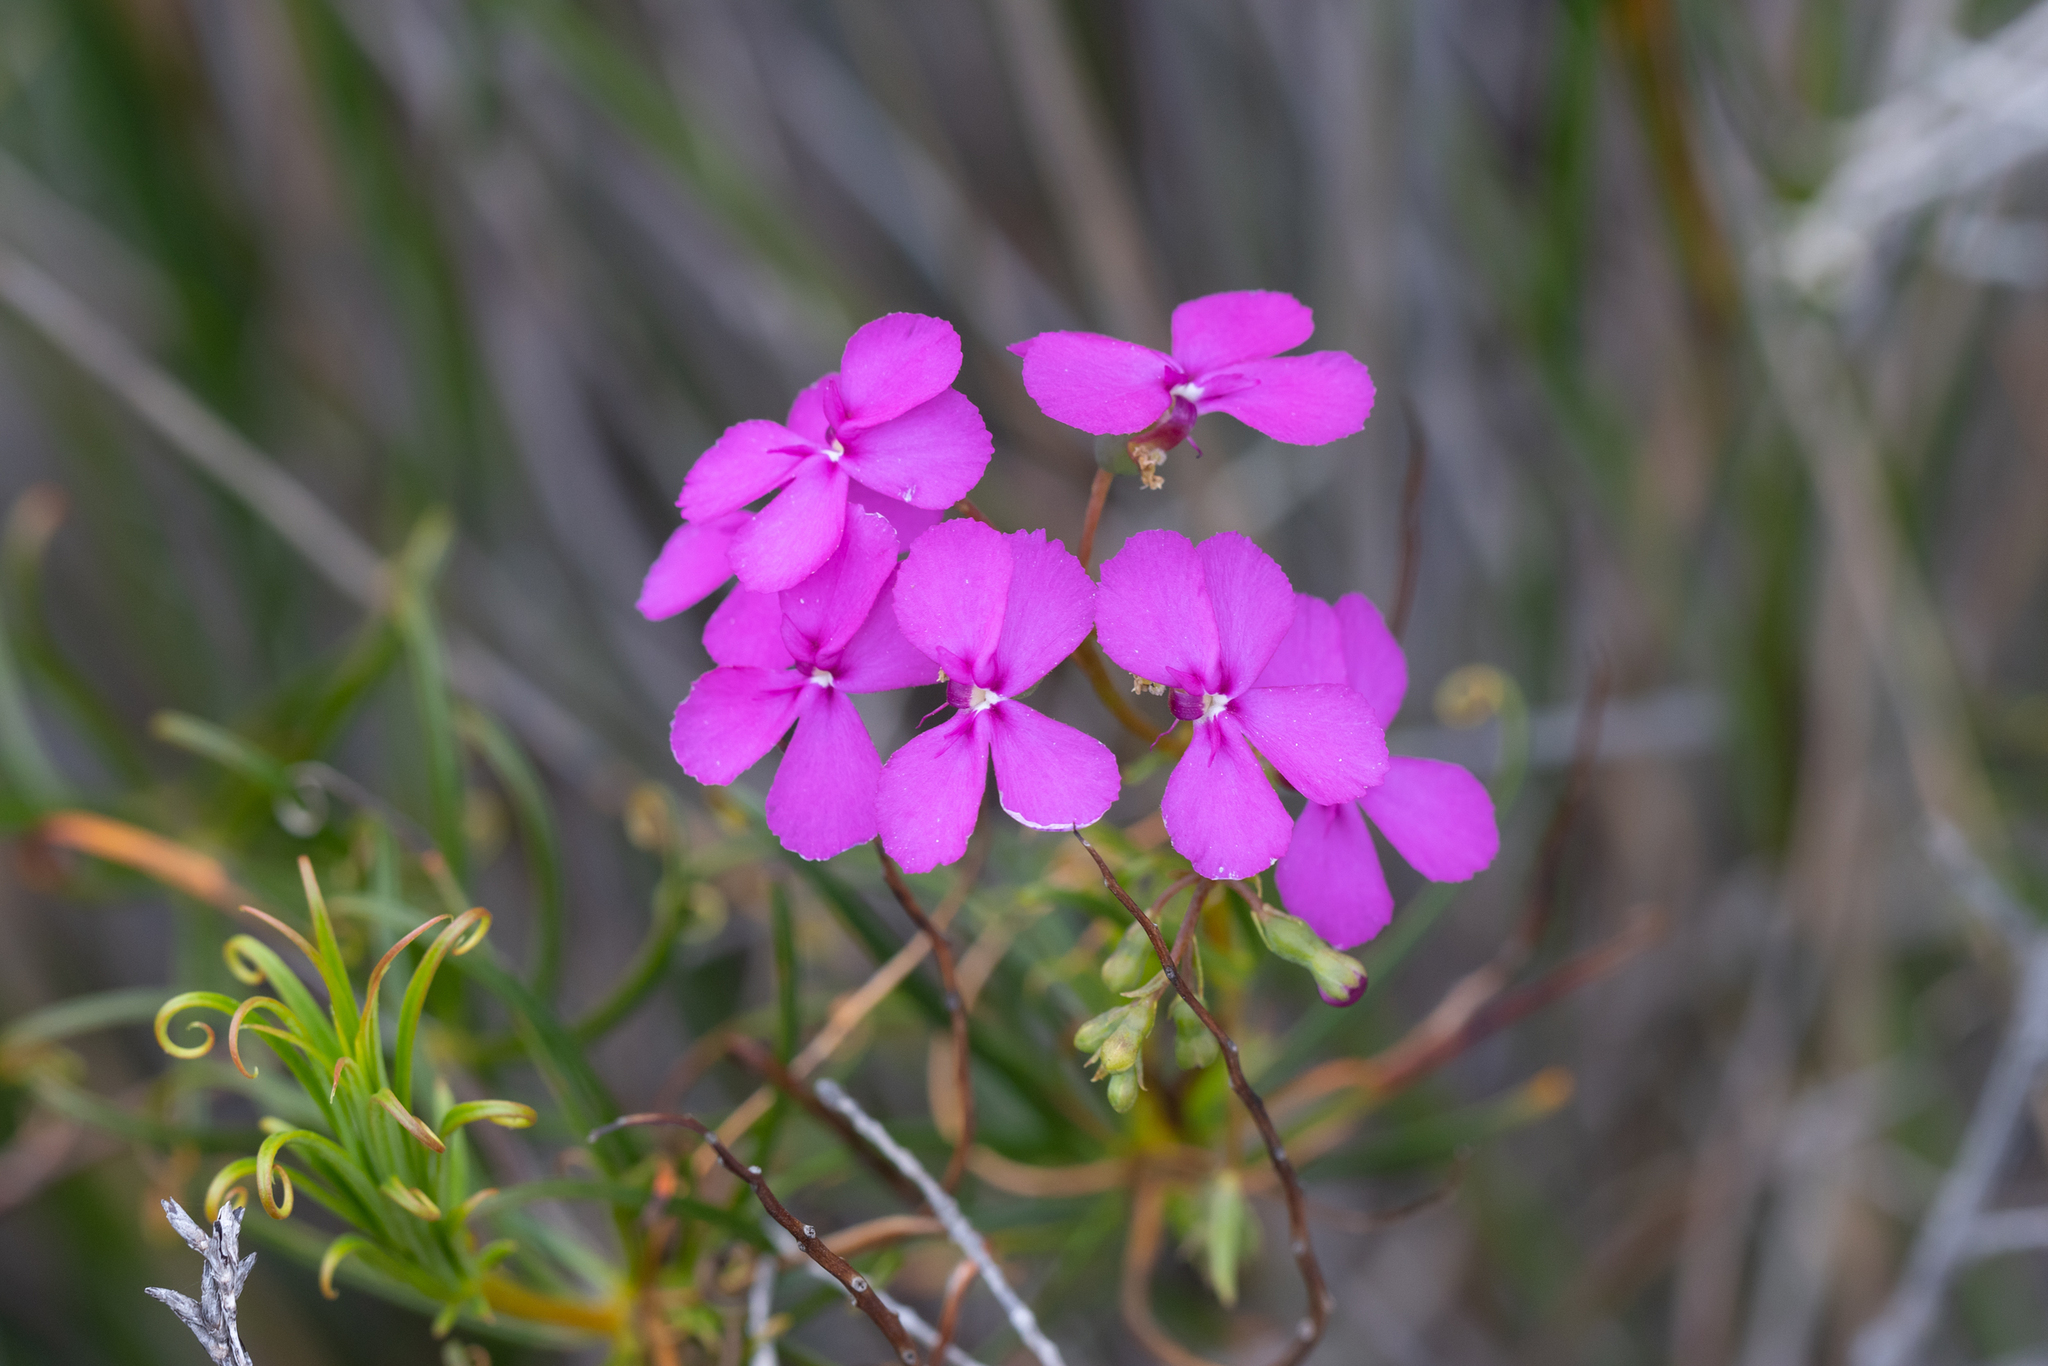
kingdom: Plantae
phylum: Tracheophyta
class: Magnoliopsida
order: Asterales
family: Stylidiaceae
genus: Stylidium
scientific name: Stylidium scandens
